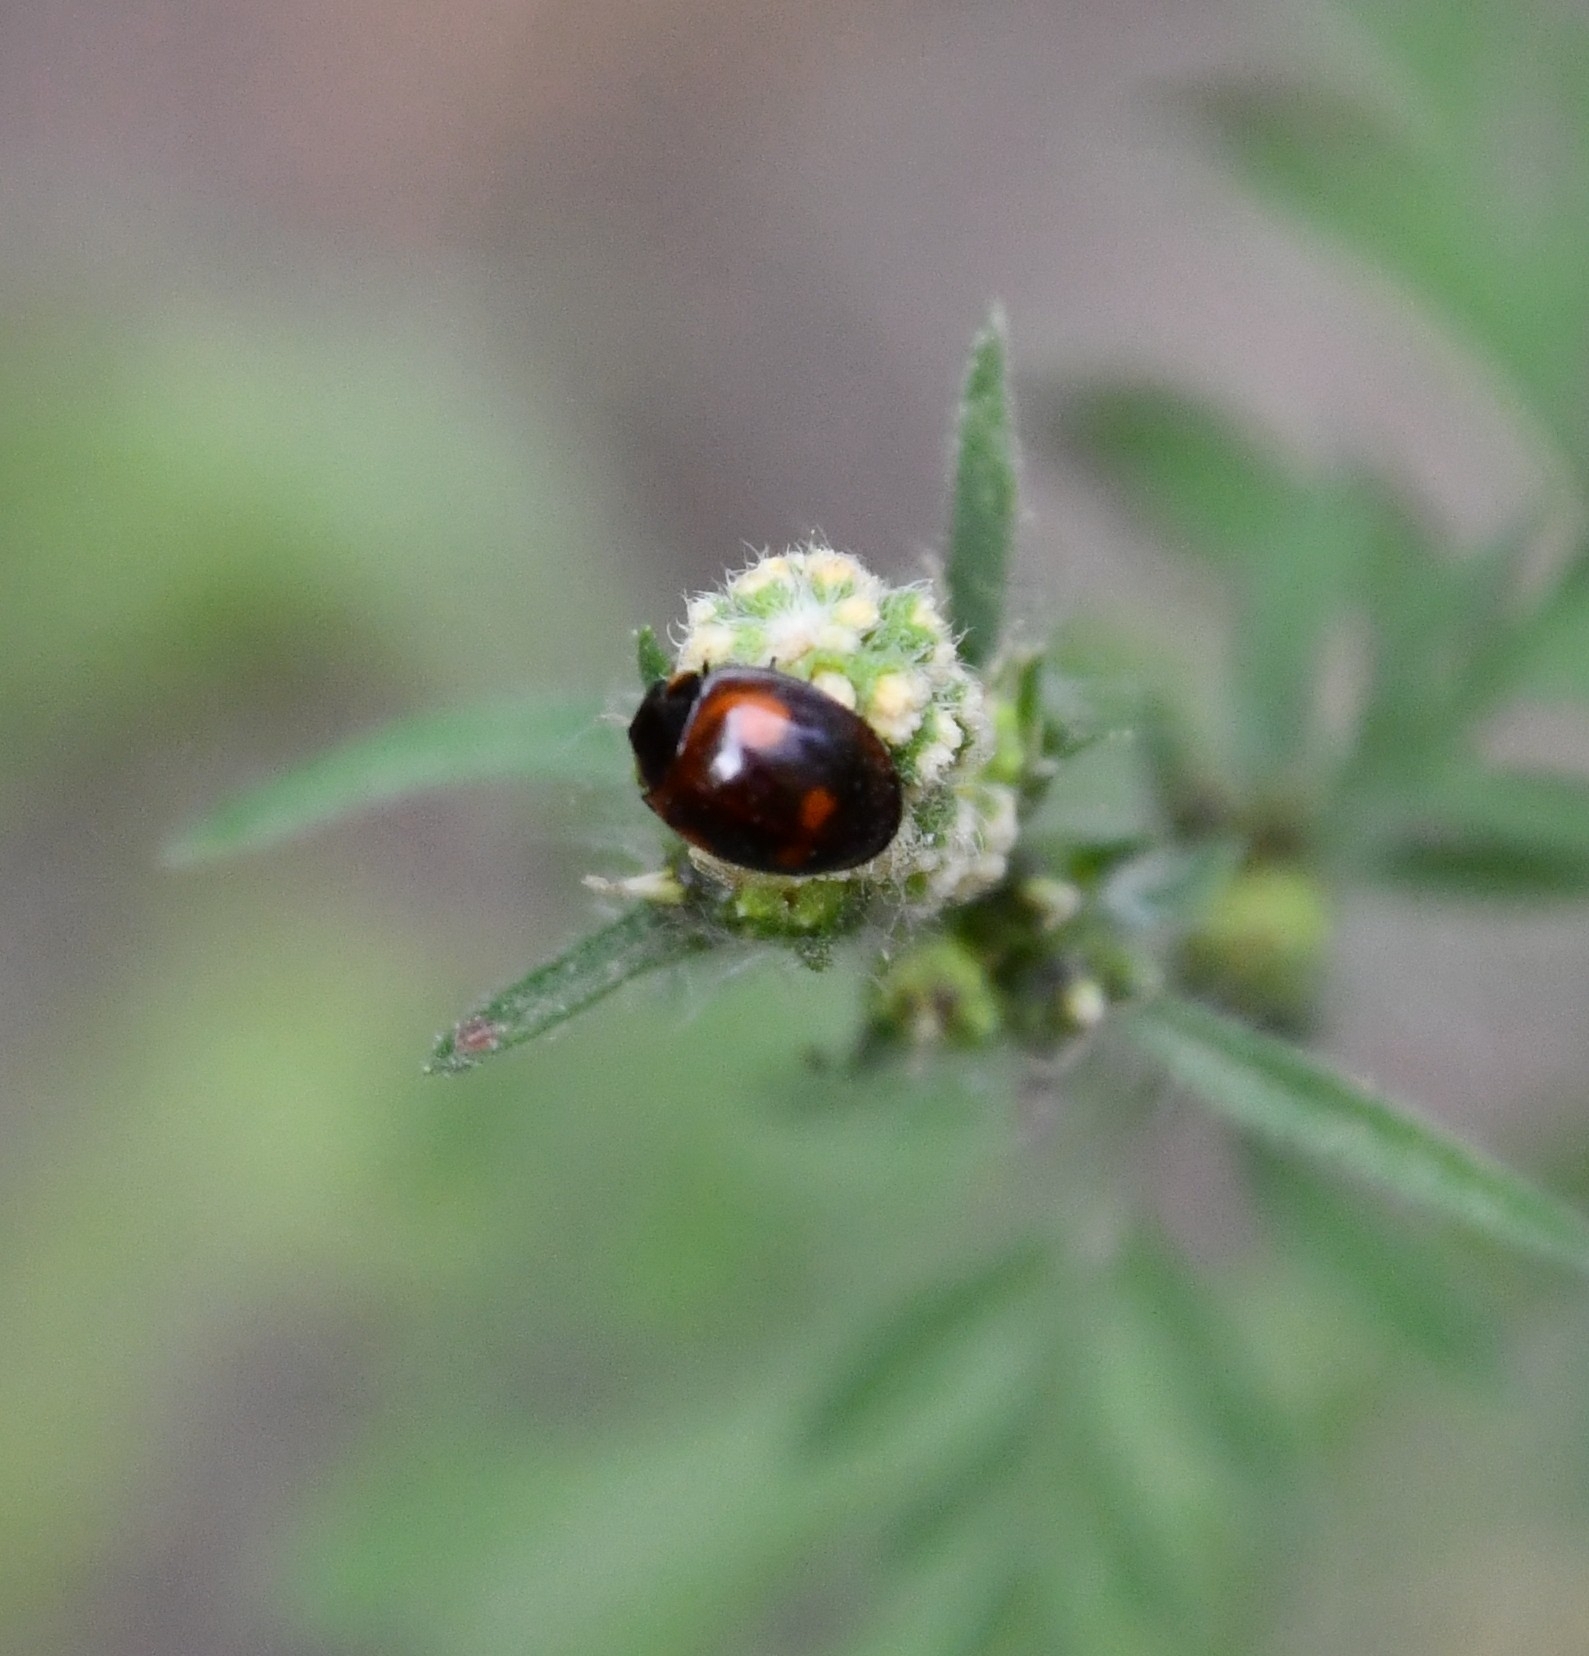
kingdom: Animalia
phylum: Arthropoda
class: Insecta
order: Coleoptera
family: Coccinellidae
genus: Brumus
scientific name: Brumus quadripustulatus
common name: Ladybird beetle
